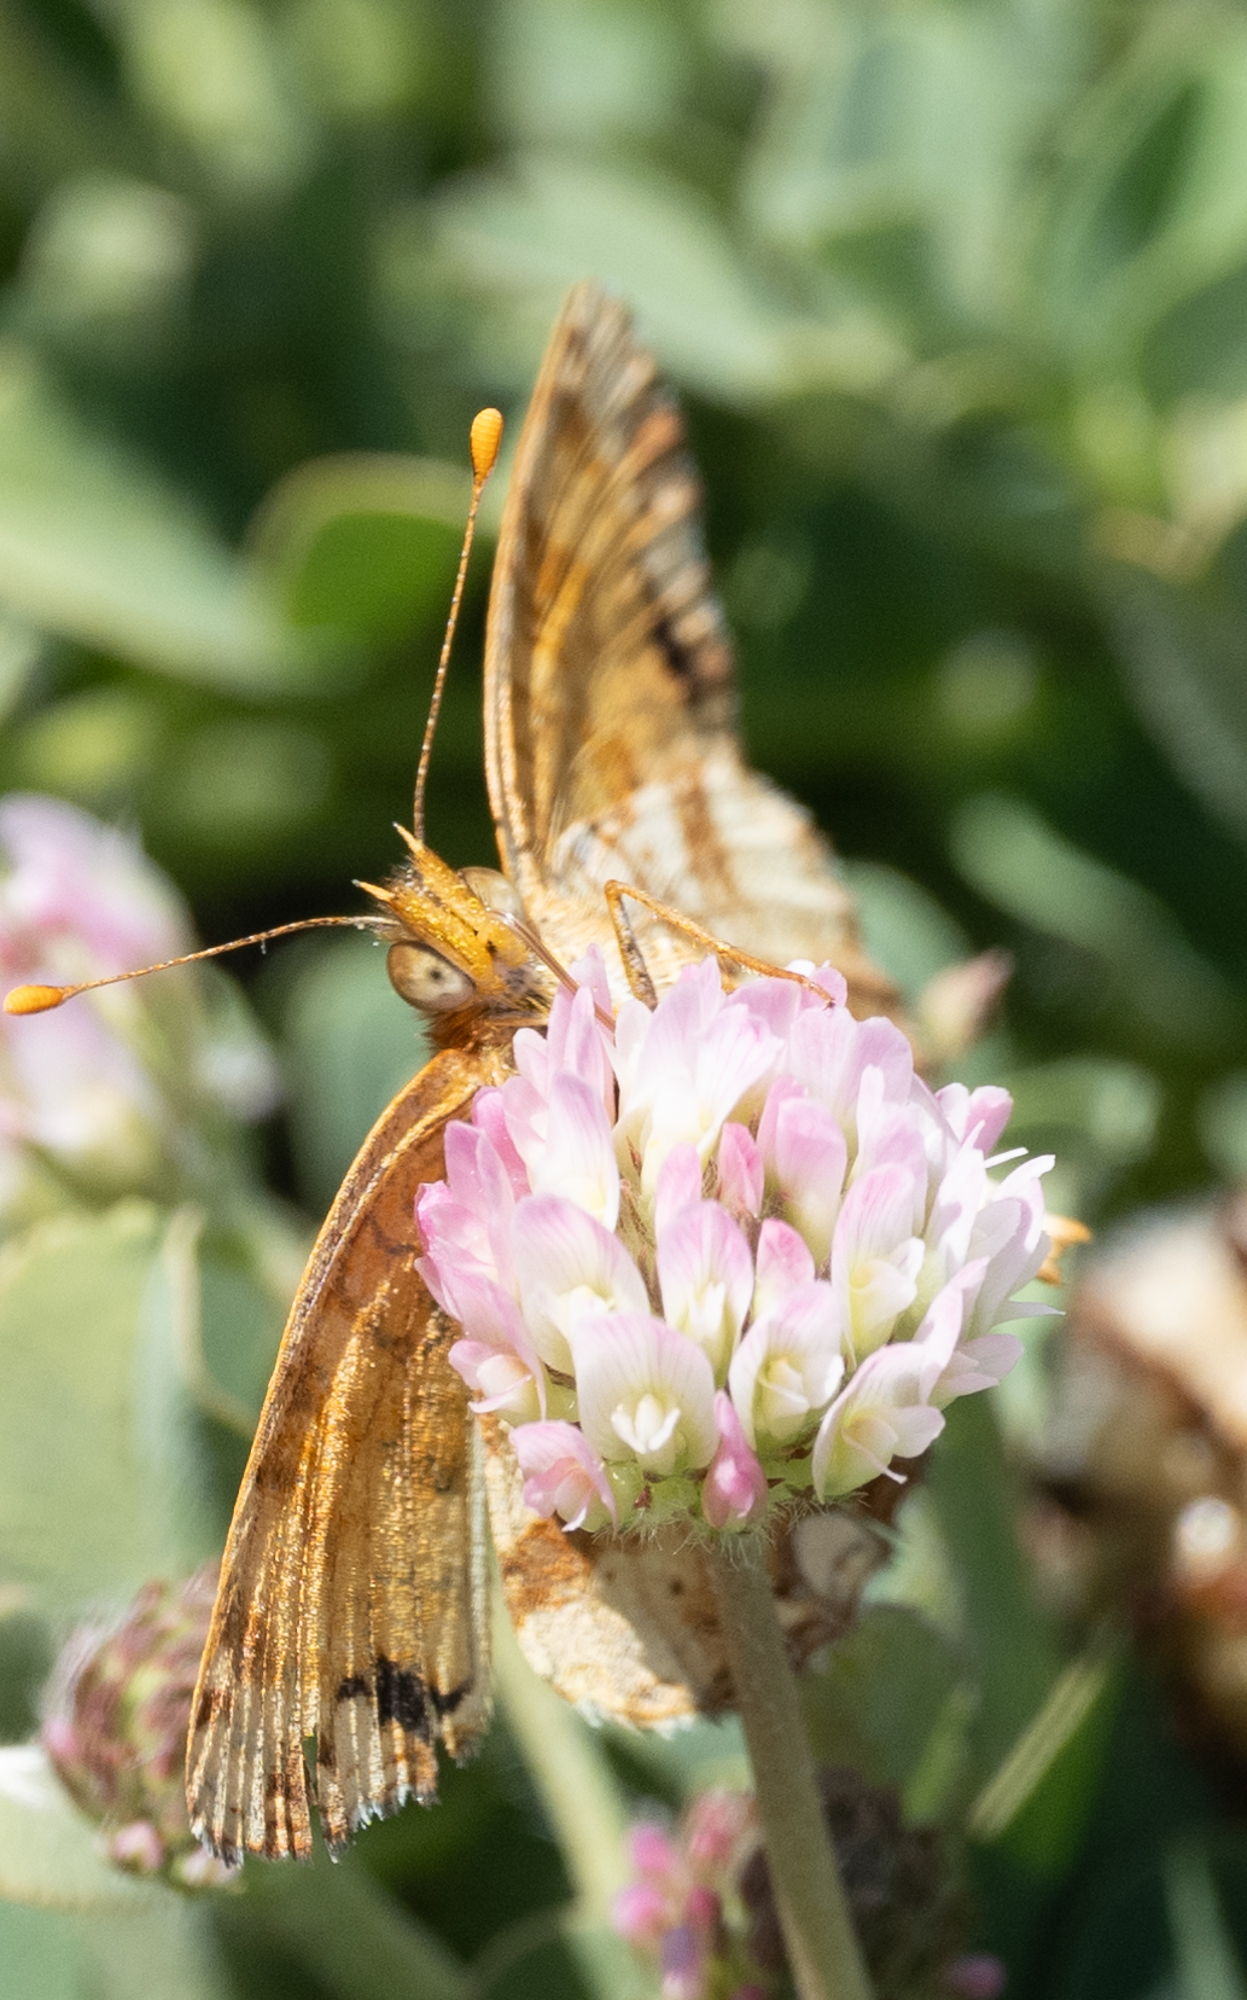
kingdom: Animalia
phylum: Arthropoda
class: Insecta
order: Lepidoptera
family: Nymphalidae
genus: Eresia
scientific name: Eresia aveyrona
